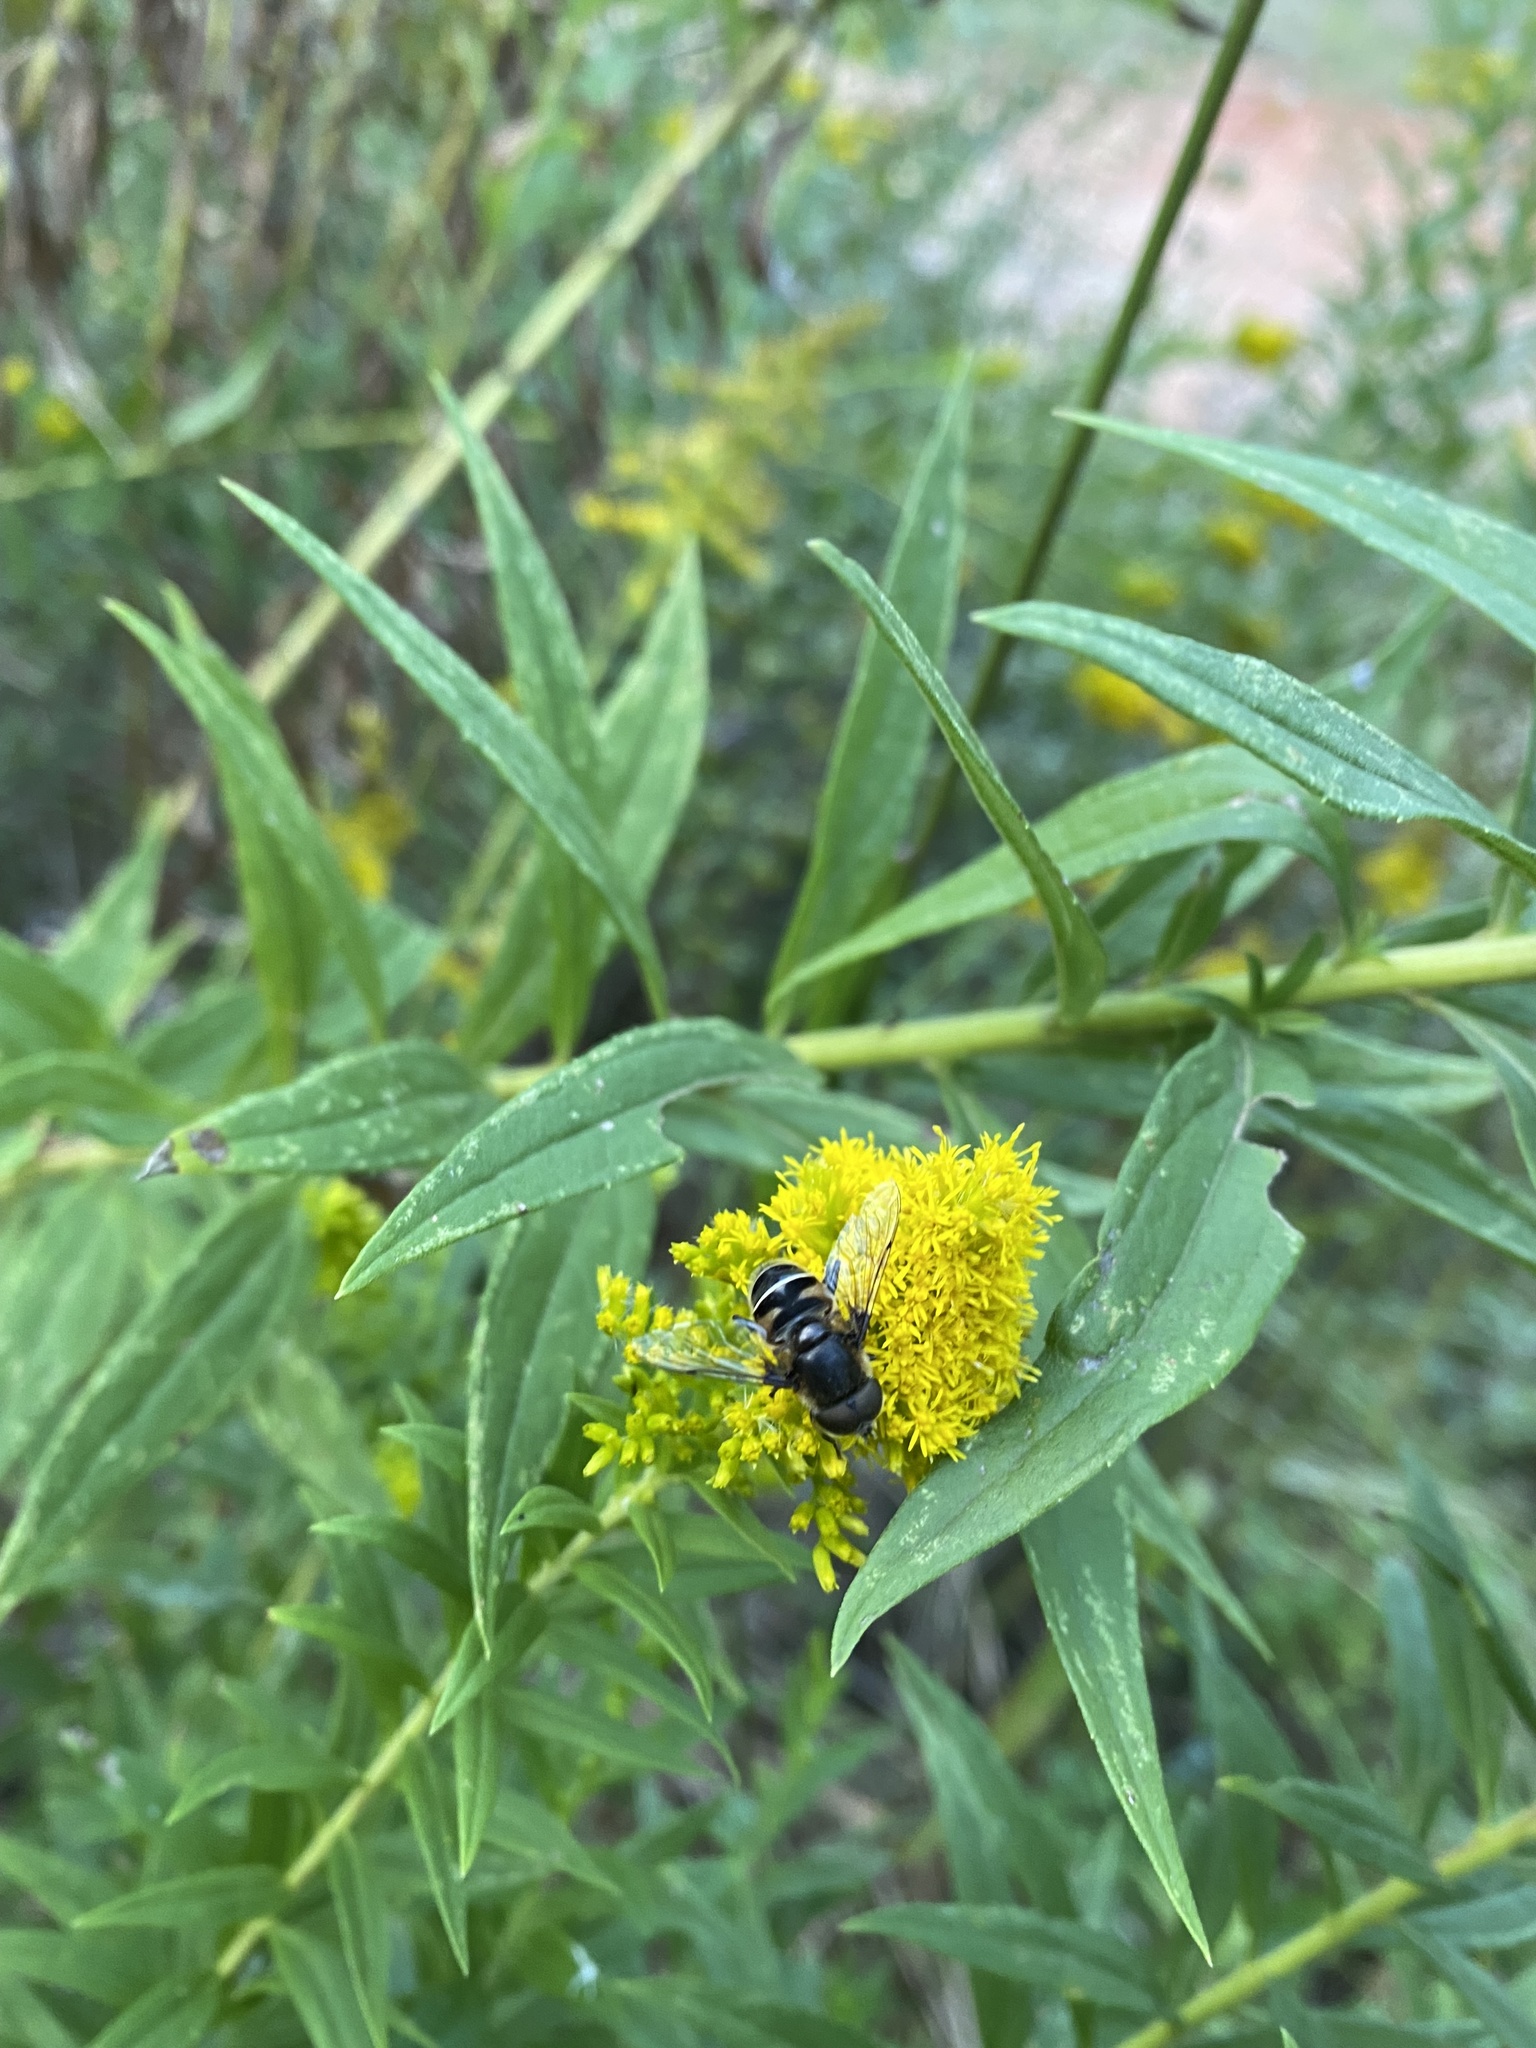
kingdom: Animalia
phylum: Arthropoda
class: Insecta
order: Diptera
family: Syrphidae
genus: Eristalis
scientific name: Eristalis dimidiata
